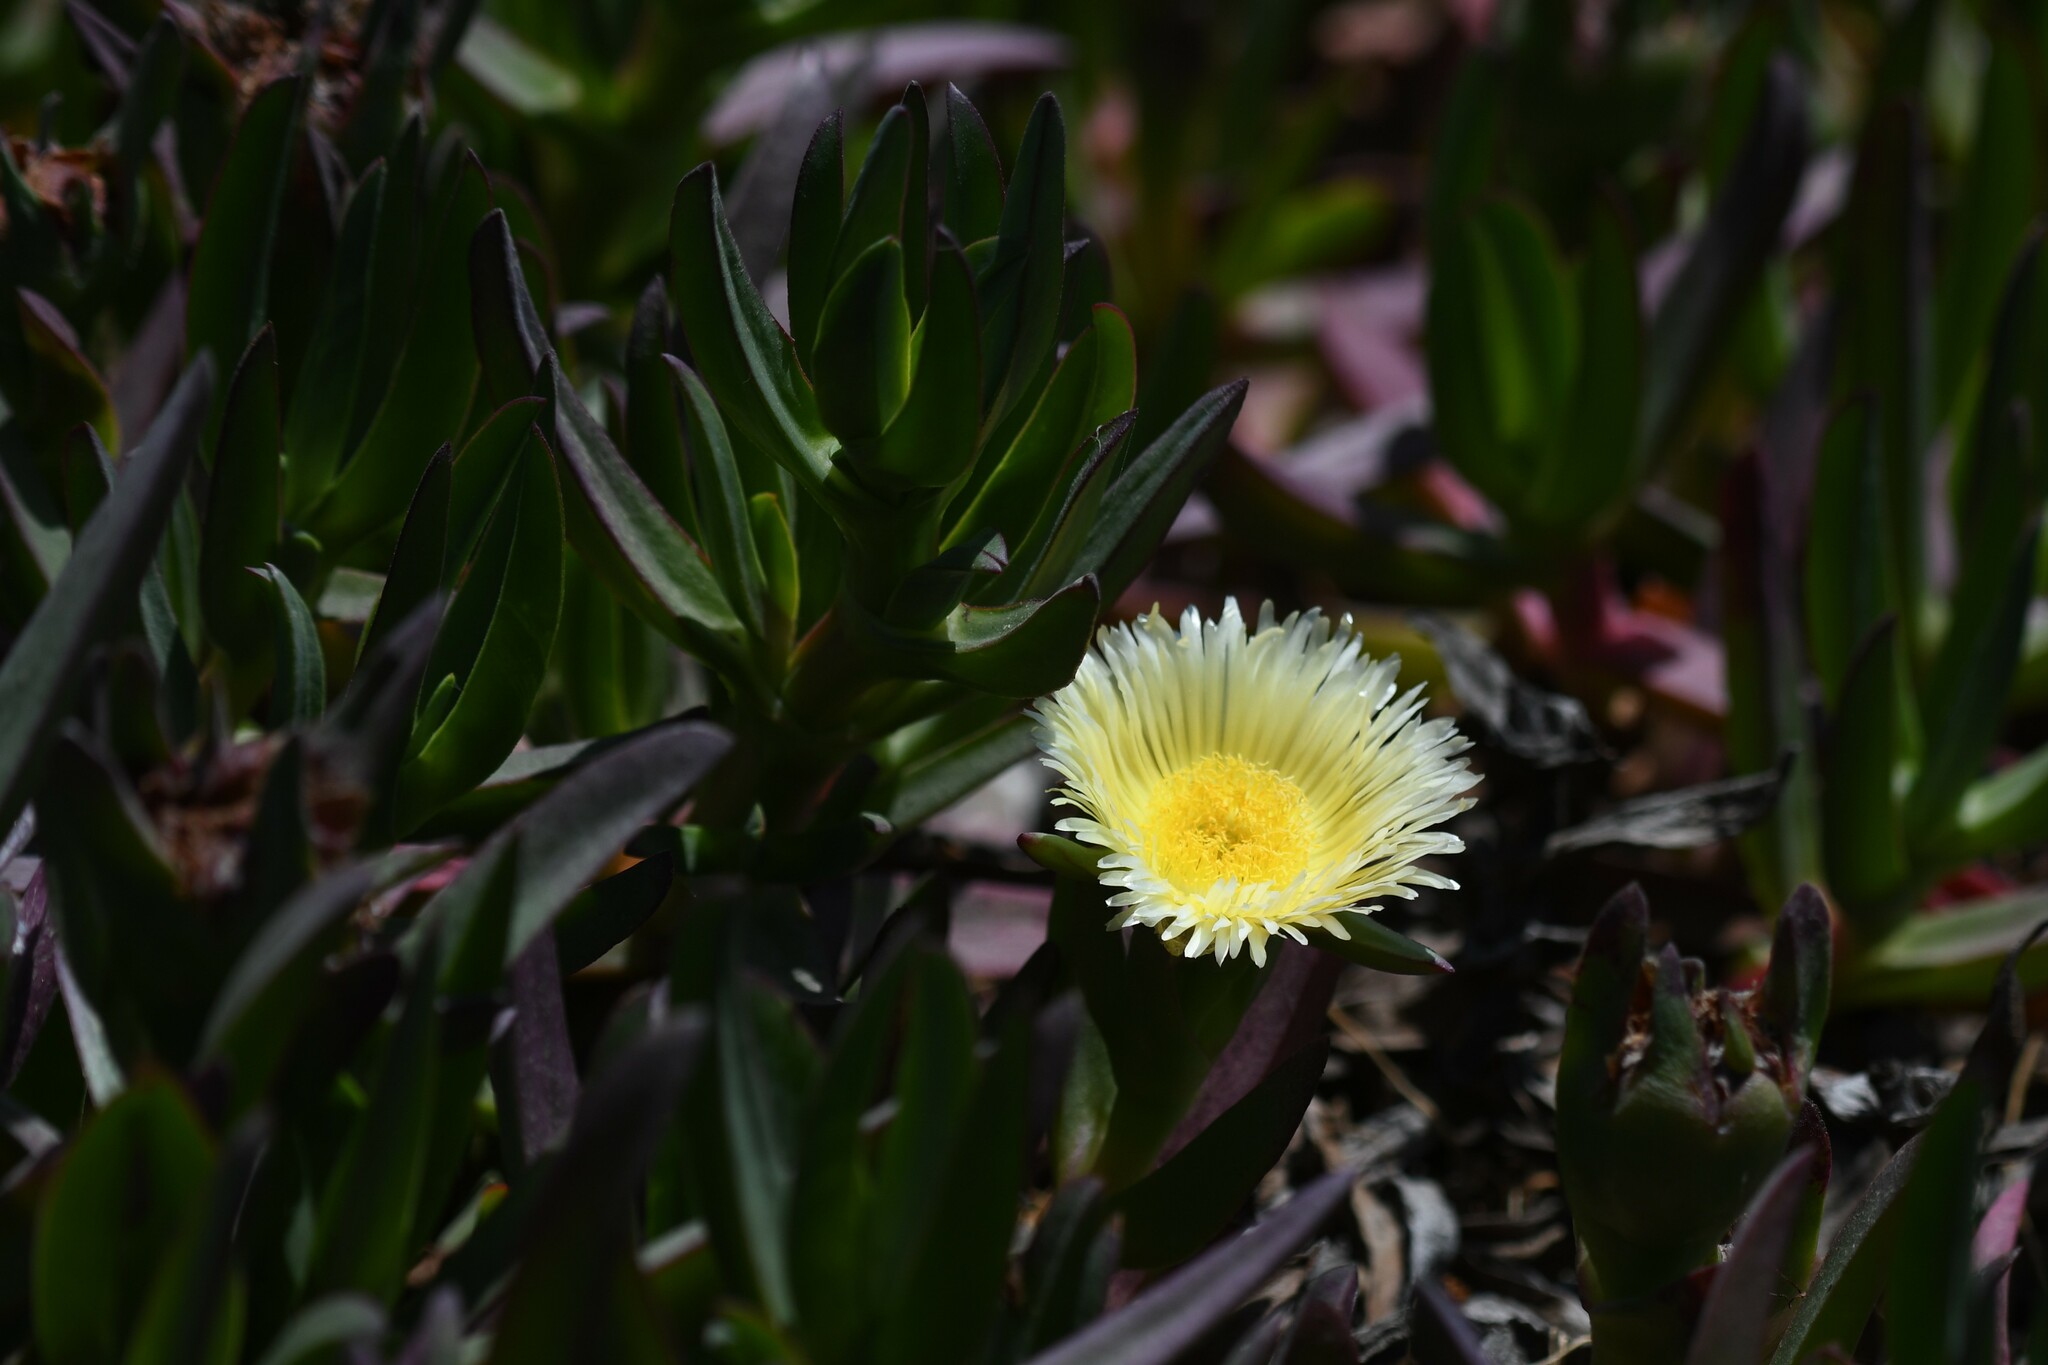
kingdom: Plantae
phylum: Tracheophyta
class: Magnoliopsida
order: Caryophyllales
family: Aizoaceae
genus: Carpobrotus
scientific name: Carpobrotus edulis
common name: Hottentot-fig
